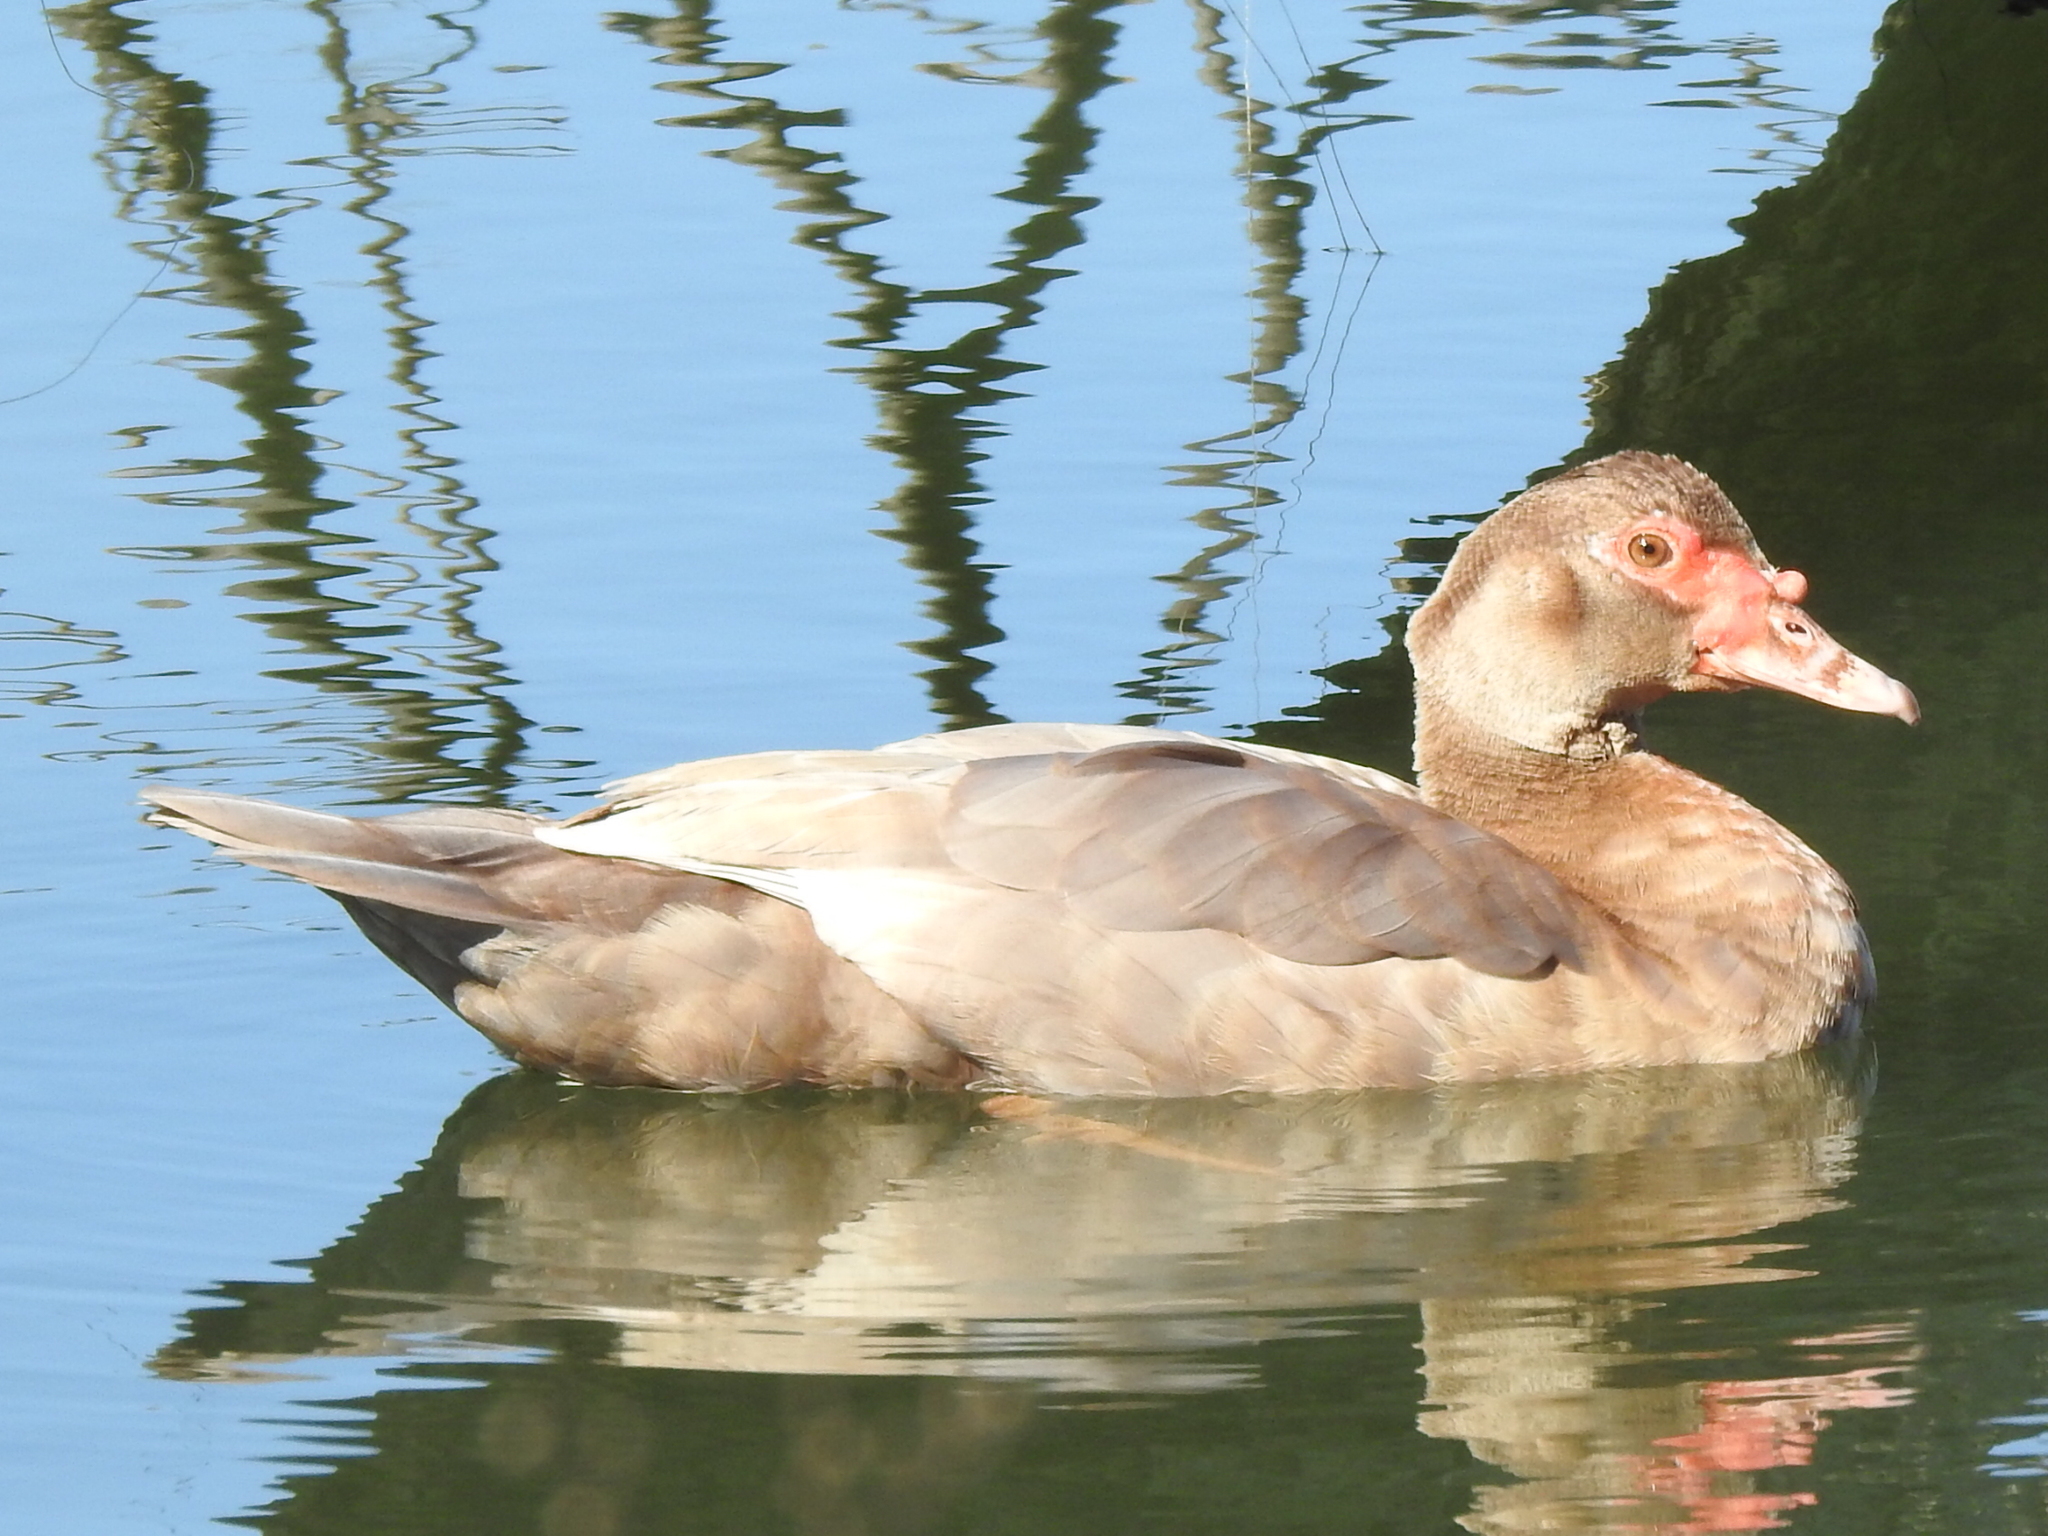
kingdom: Animalia
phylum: Chordata
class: Aves
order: Anseriformes
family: Anatidae
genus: Cairina
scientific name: Cairina moschata
